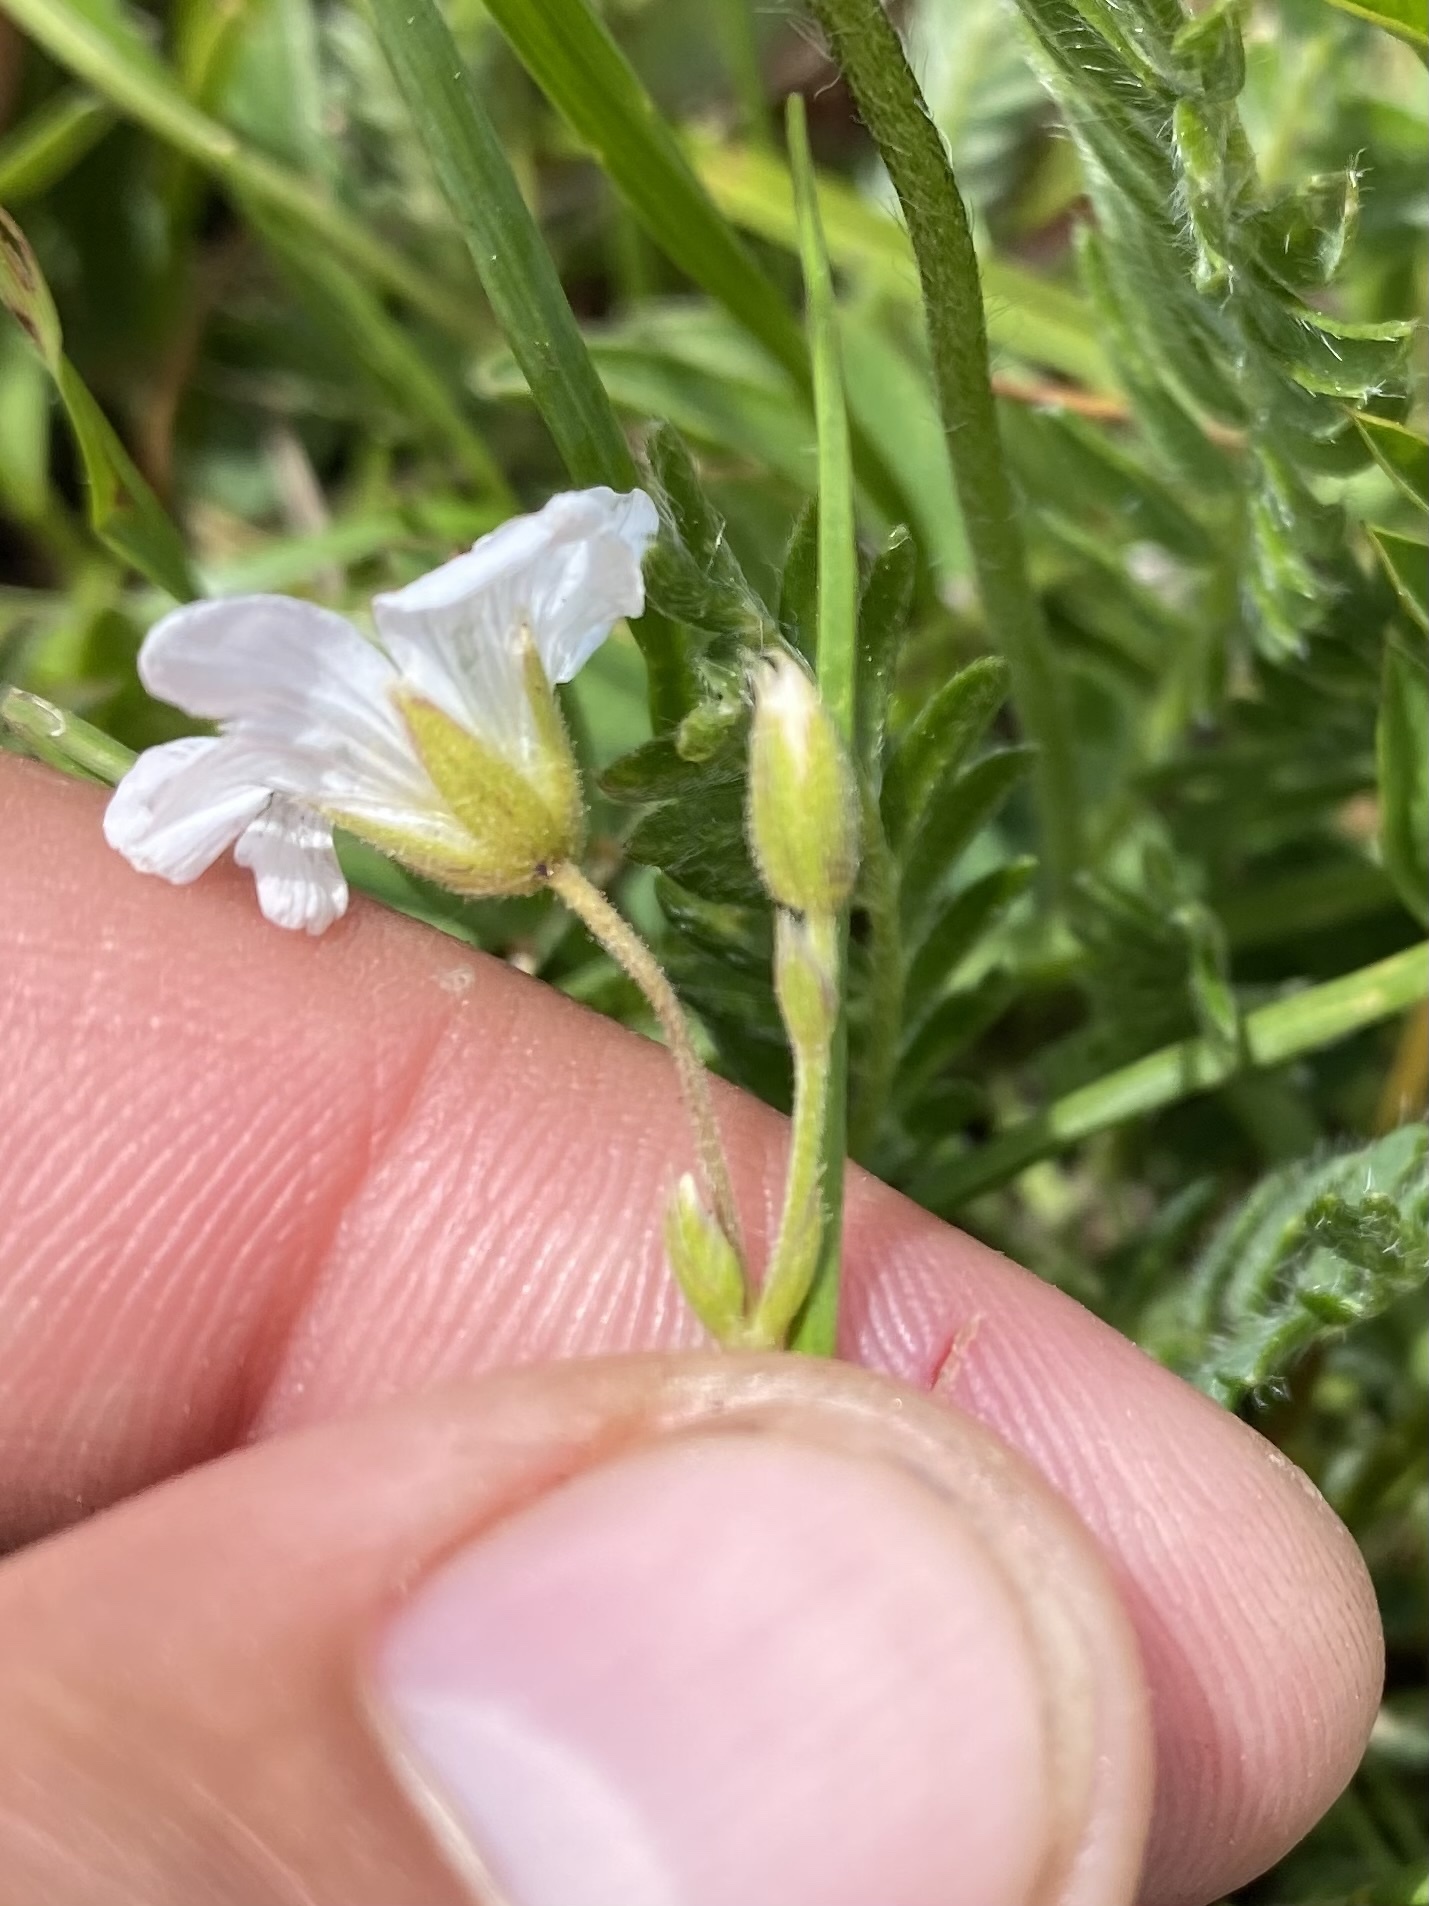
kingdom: Plantae
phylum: Tracheophyta
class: Magnoliopsida
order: Caryophyllales
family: Caryophyllaceae
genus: Cerastium
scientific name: Cerastium arvense
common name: Field mouse-ear
